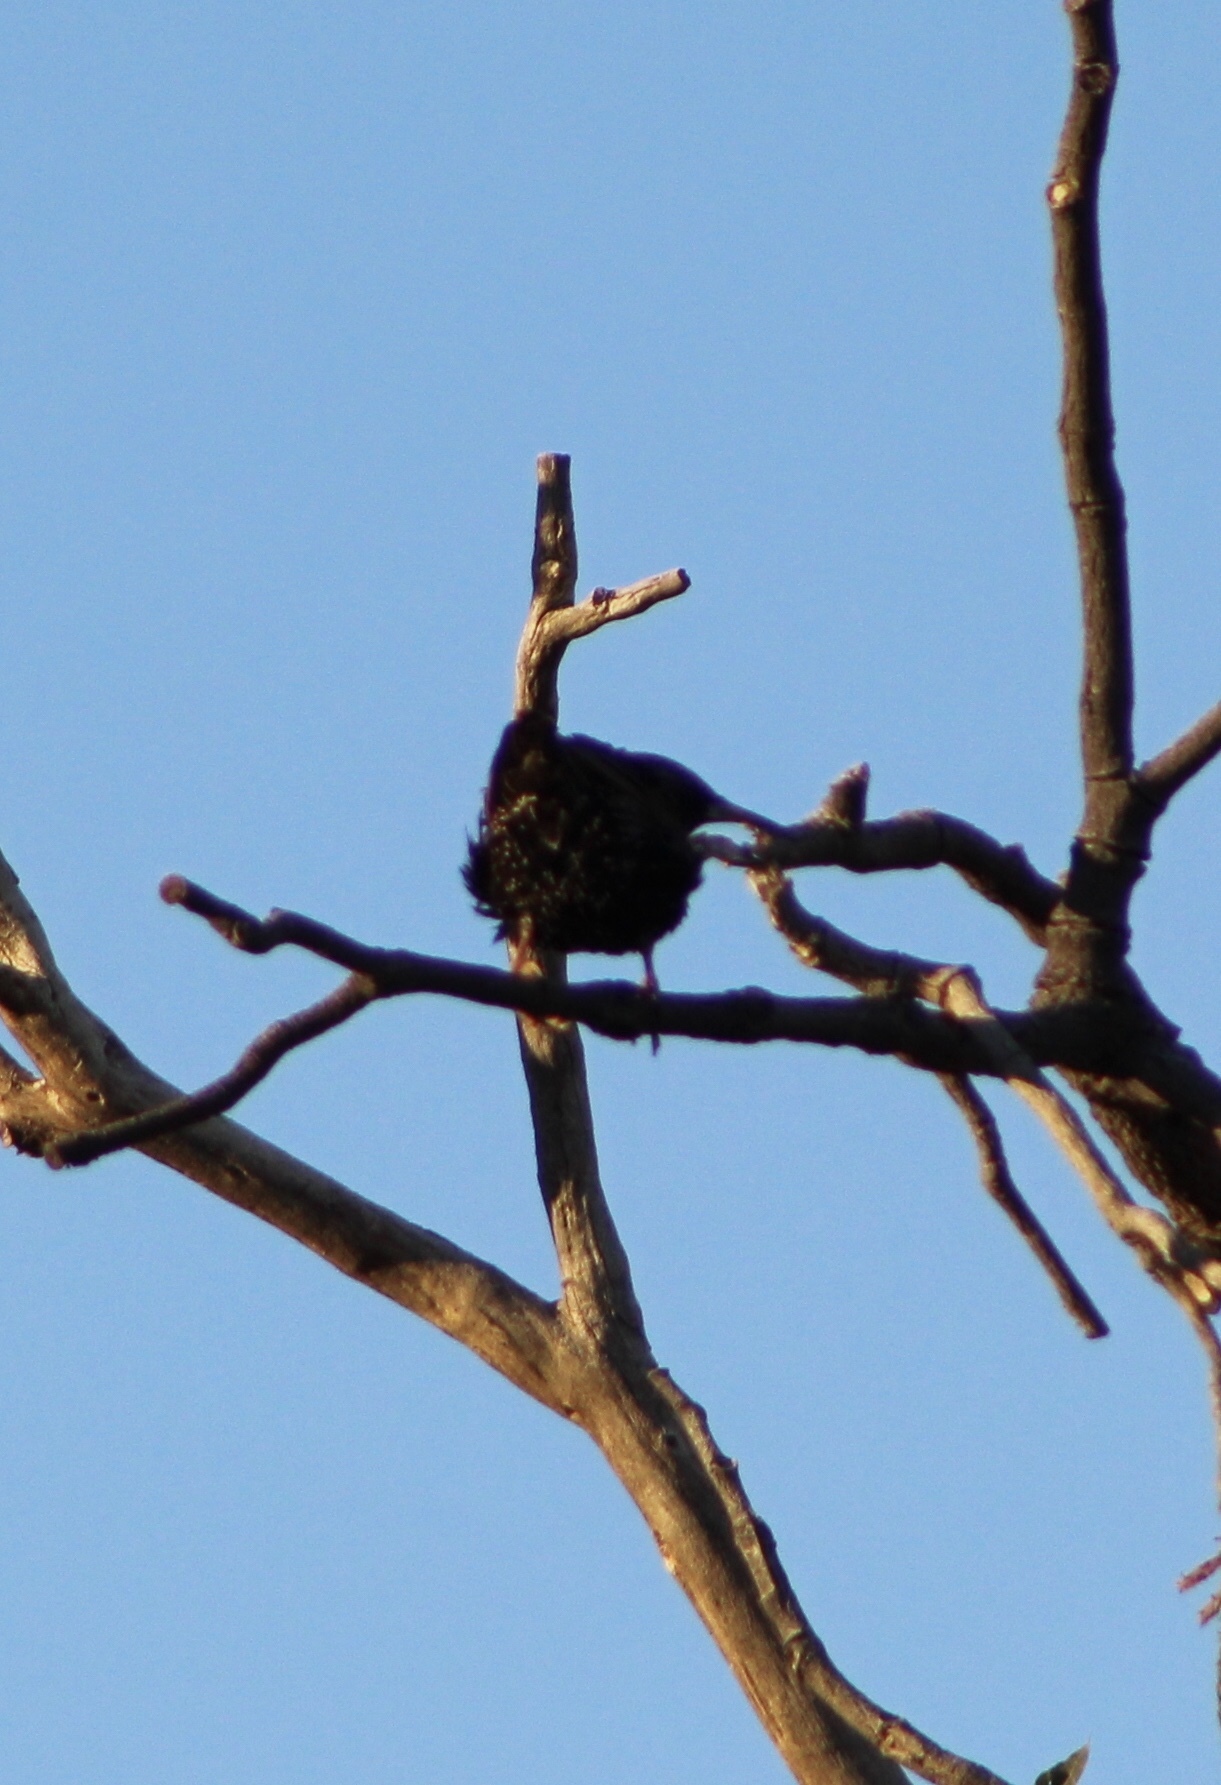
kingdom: Animalia
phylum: Chordata
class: Aves
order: Passeriformes
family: Sturnidae
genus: Sturnus
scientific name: Sturnus vulgaris
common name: Common starling
